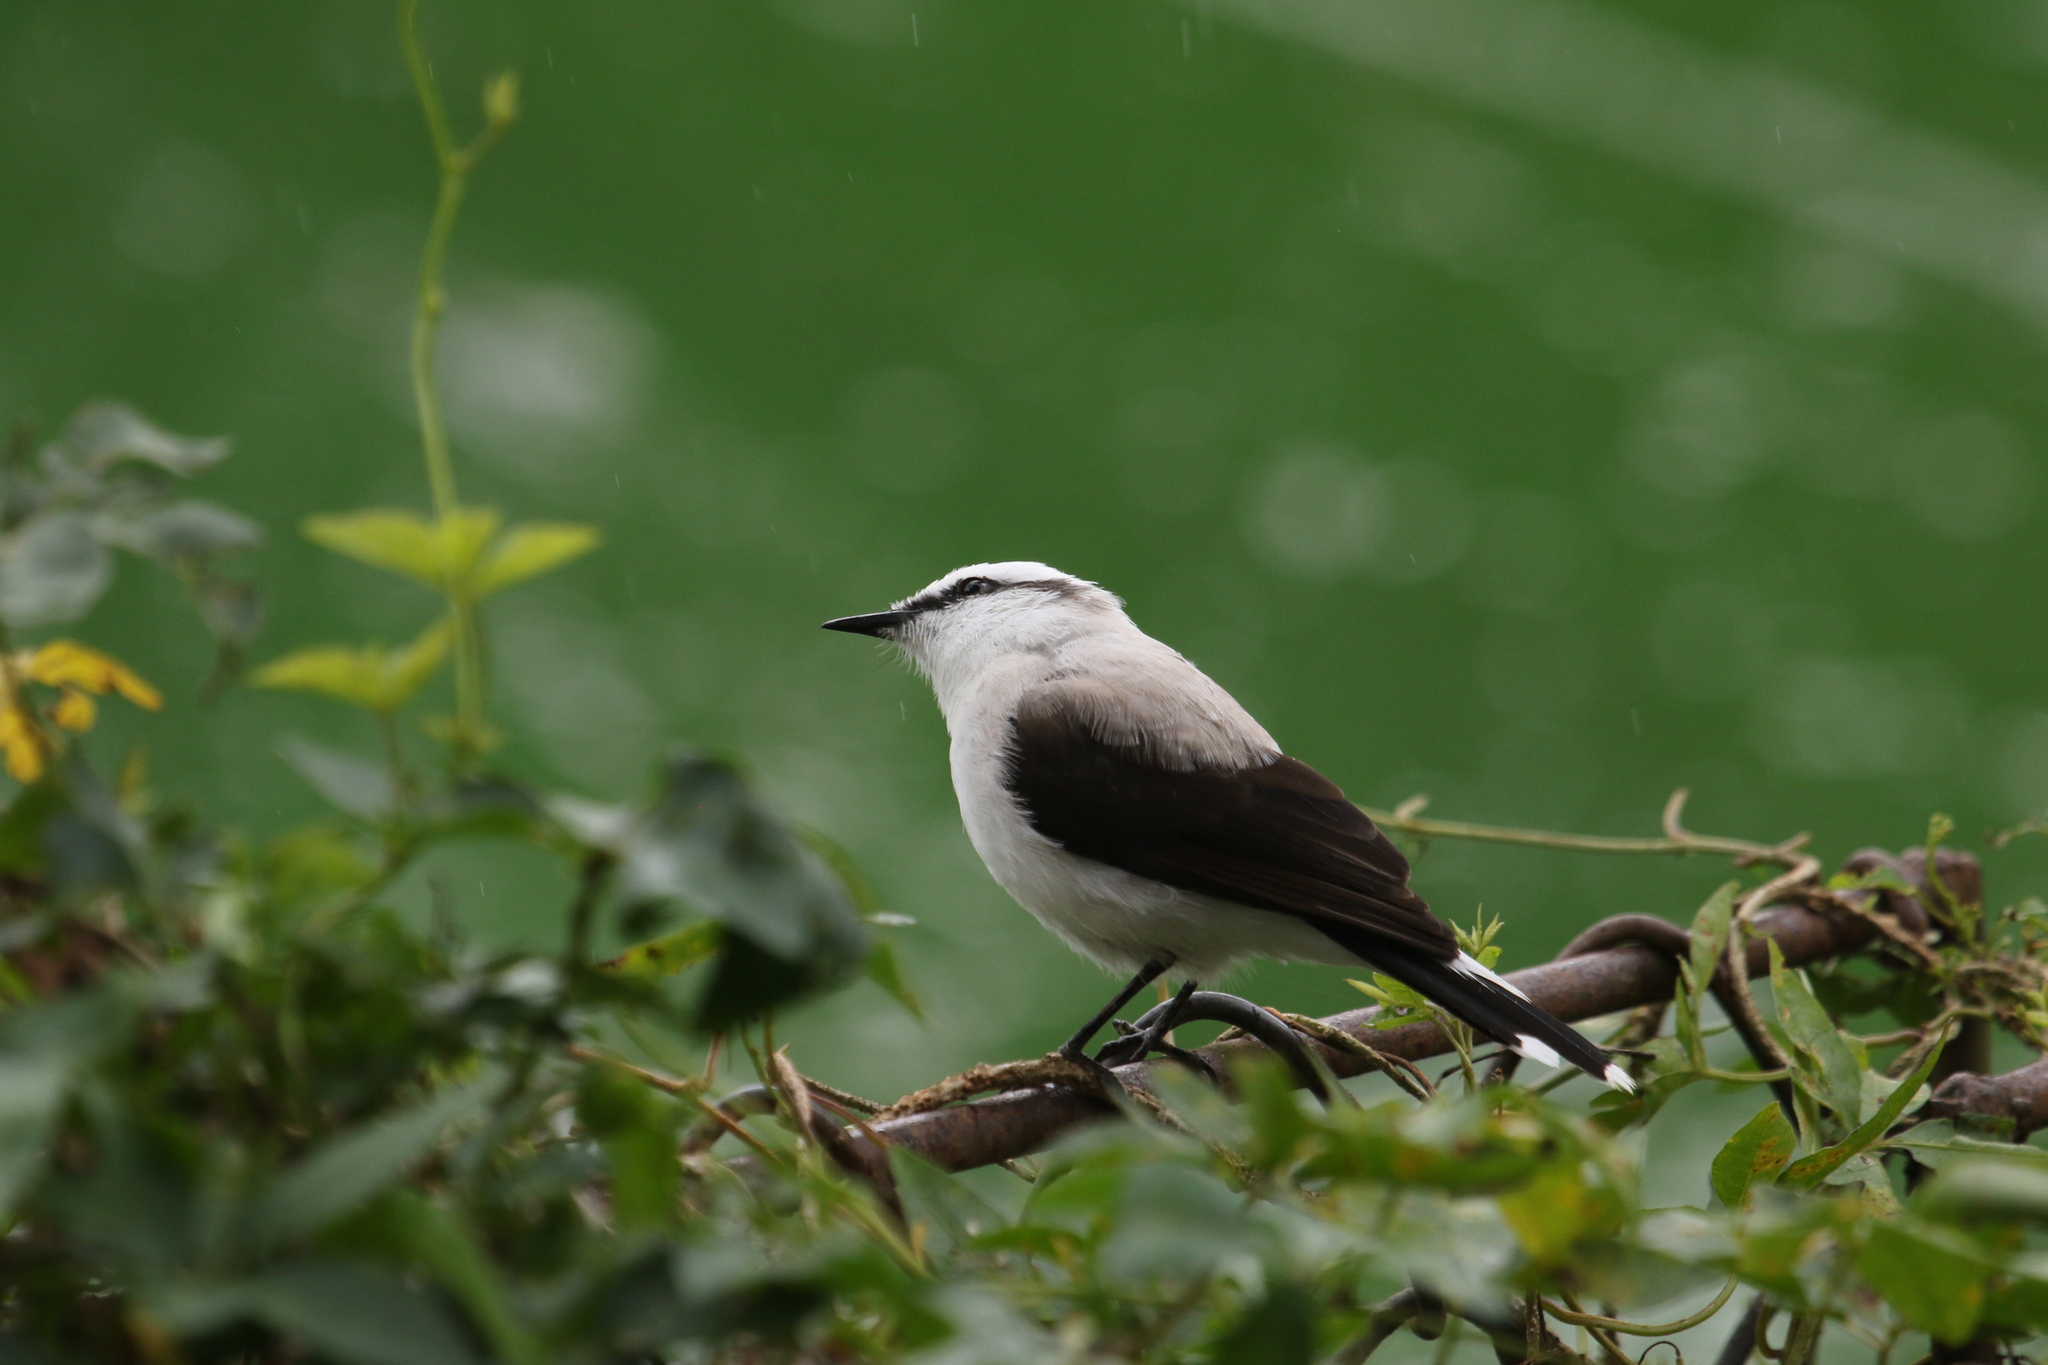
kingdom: Animalia
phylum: Chordata
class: Aves
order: Passeriformes
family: Tyrannidae
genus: Fluvicola
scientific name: Fluvicola nengeta
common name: Masked water tyrant
